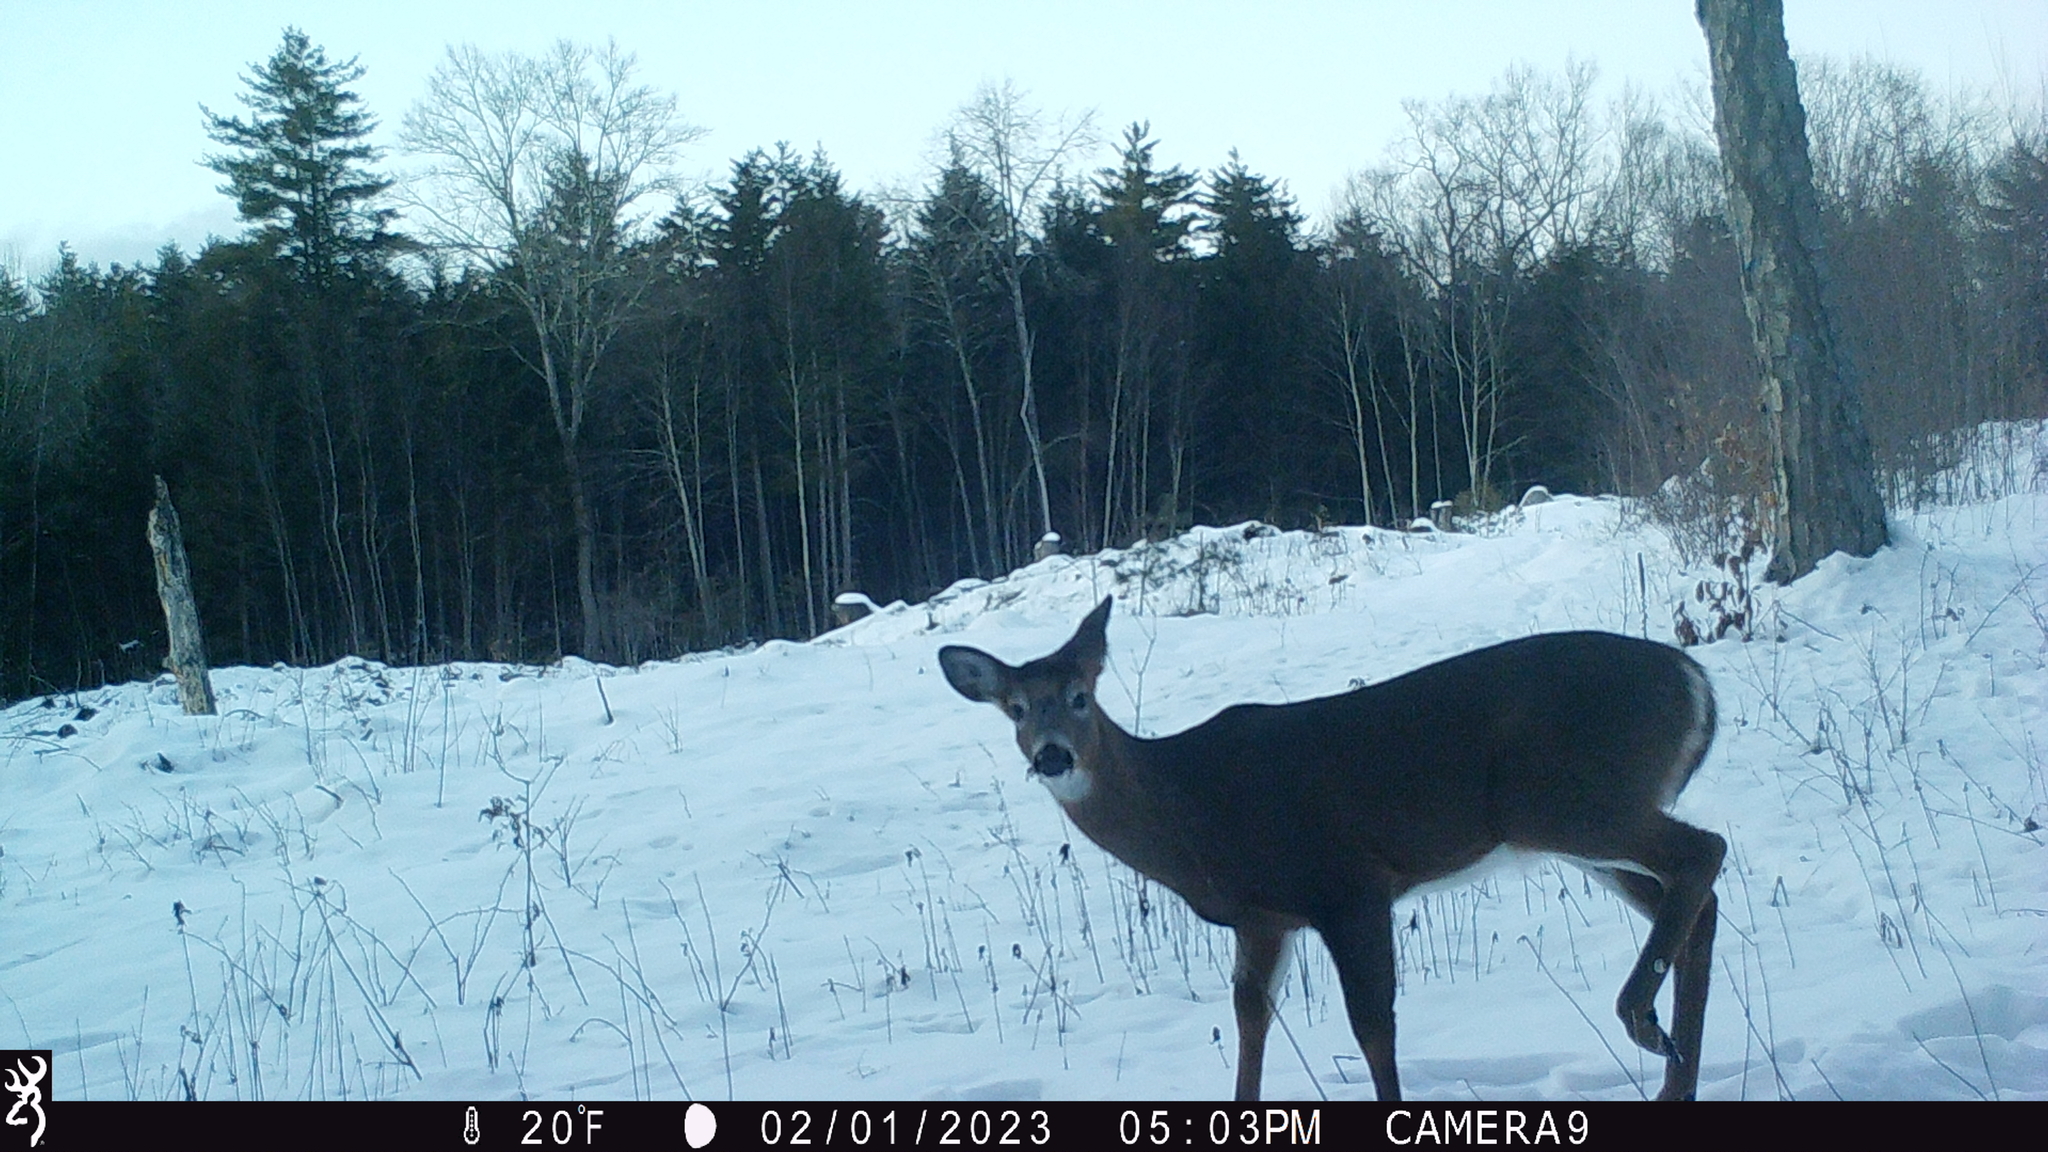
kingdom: Animalia
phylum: Chordata
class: Mammalia
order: Artiodactyla
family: Cervidae
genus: Odocoileus
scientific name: Odocoileus virginianus
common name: White-tailed deer
